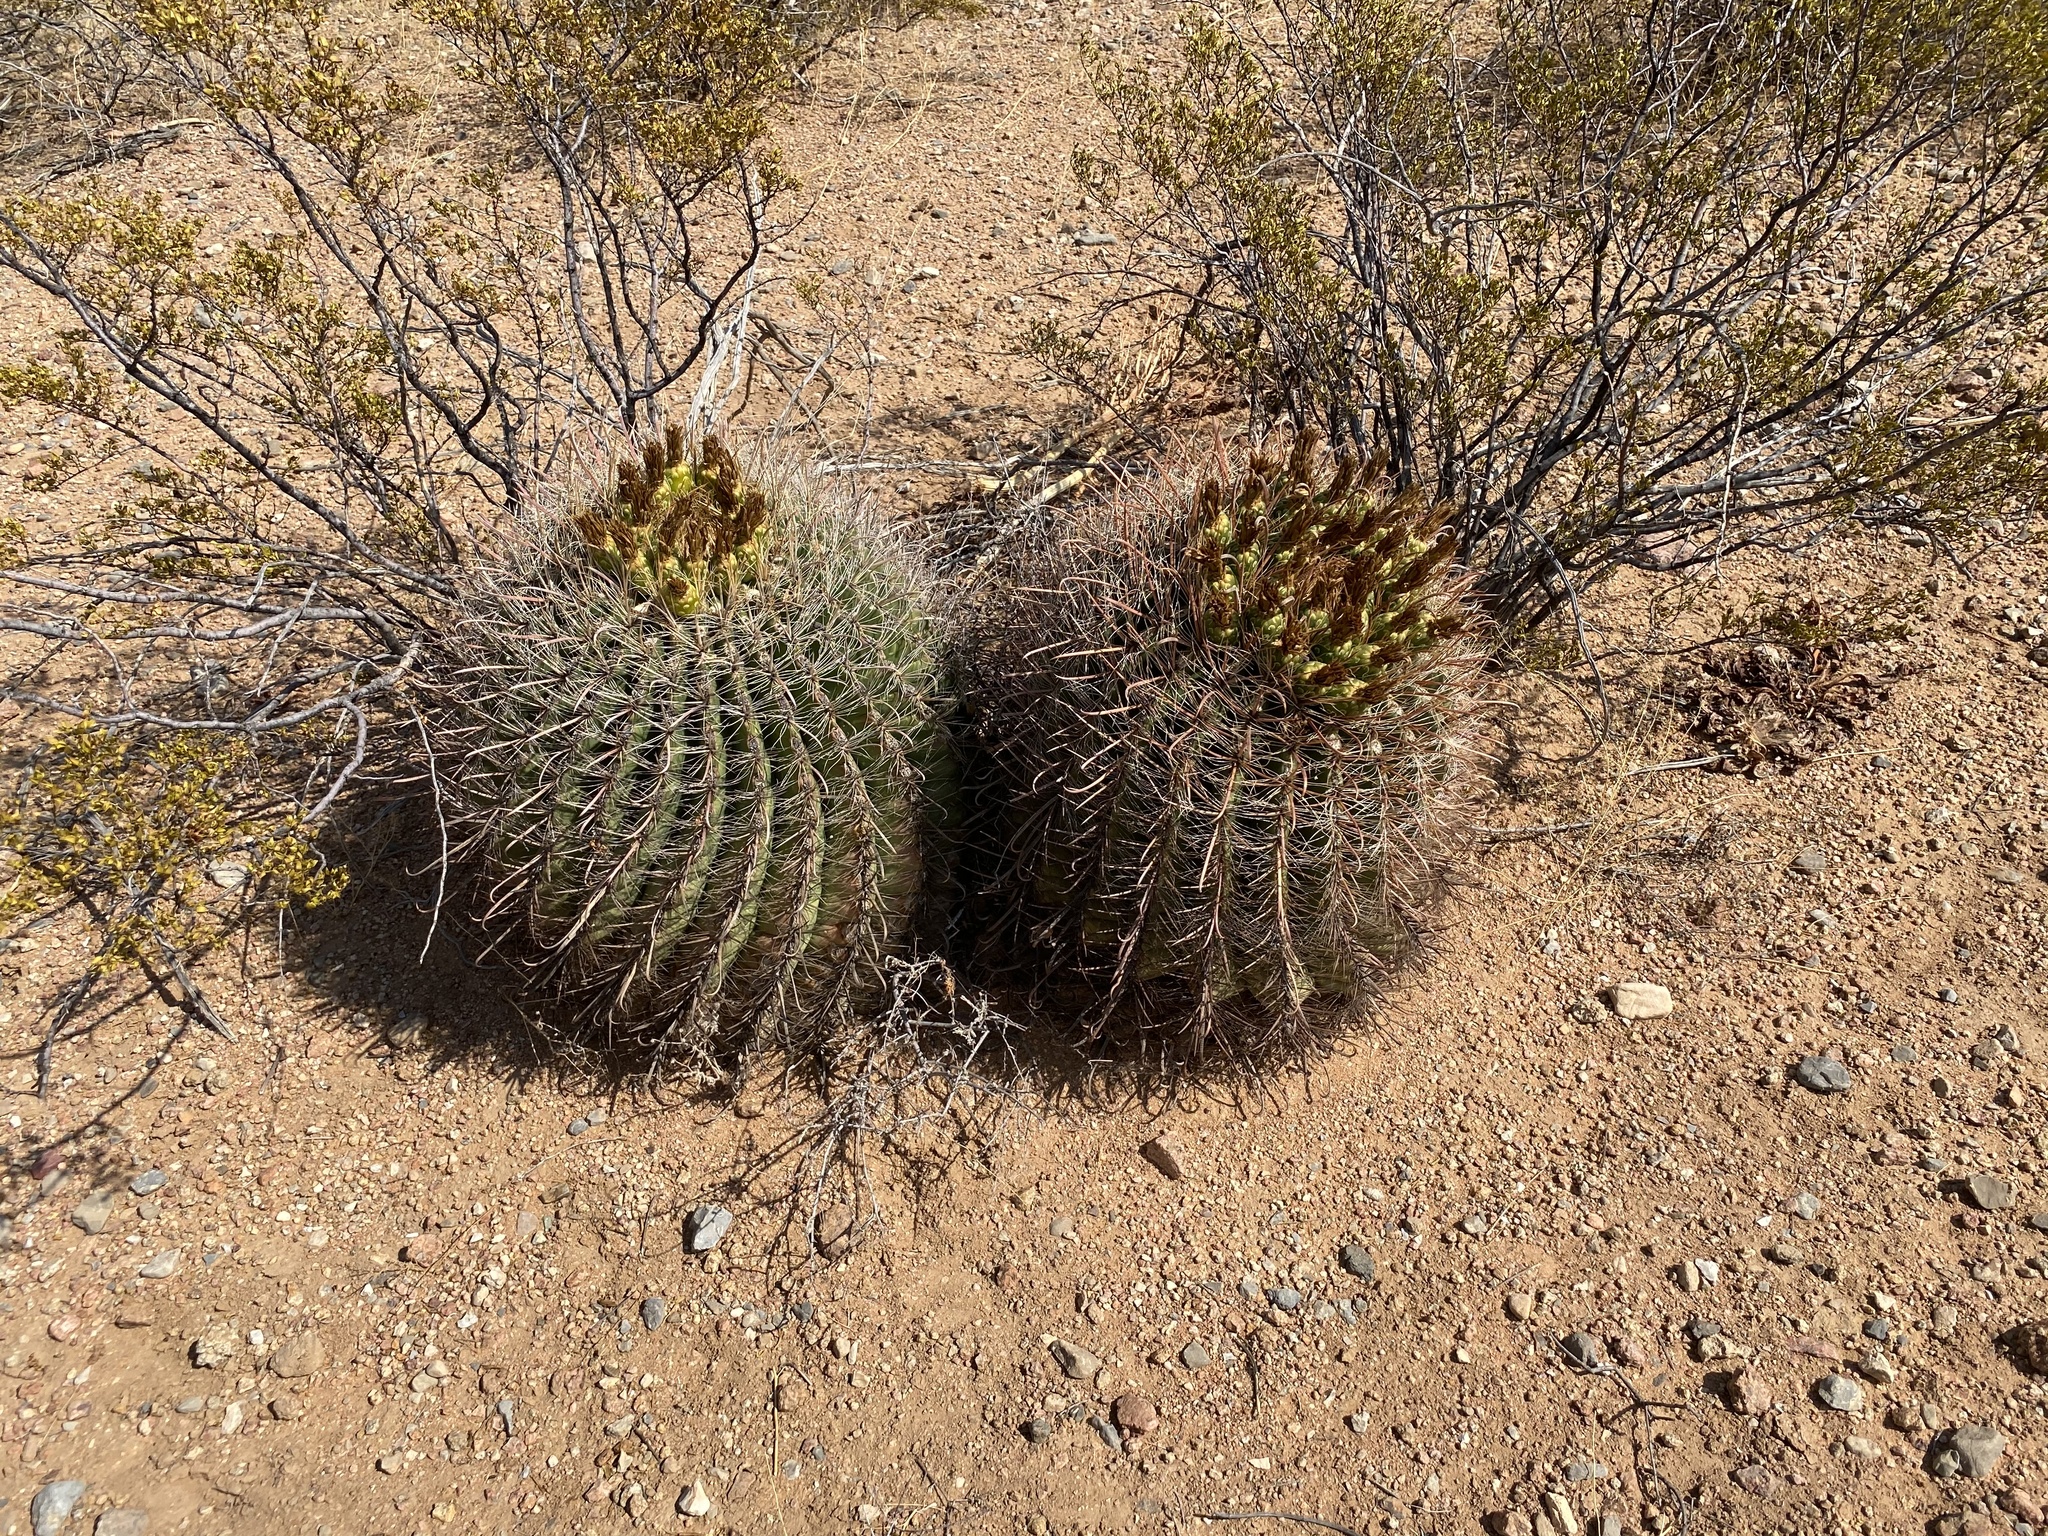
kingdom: Plantae
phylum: Tracheophyta
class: Magnoliopsida
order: Caryophyllales
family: Cactaceae
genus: Ferocactus
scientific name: Ferocactus wislizeni
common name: Candy barrel cactus
